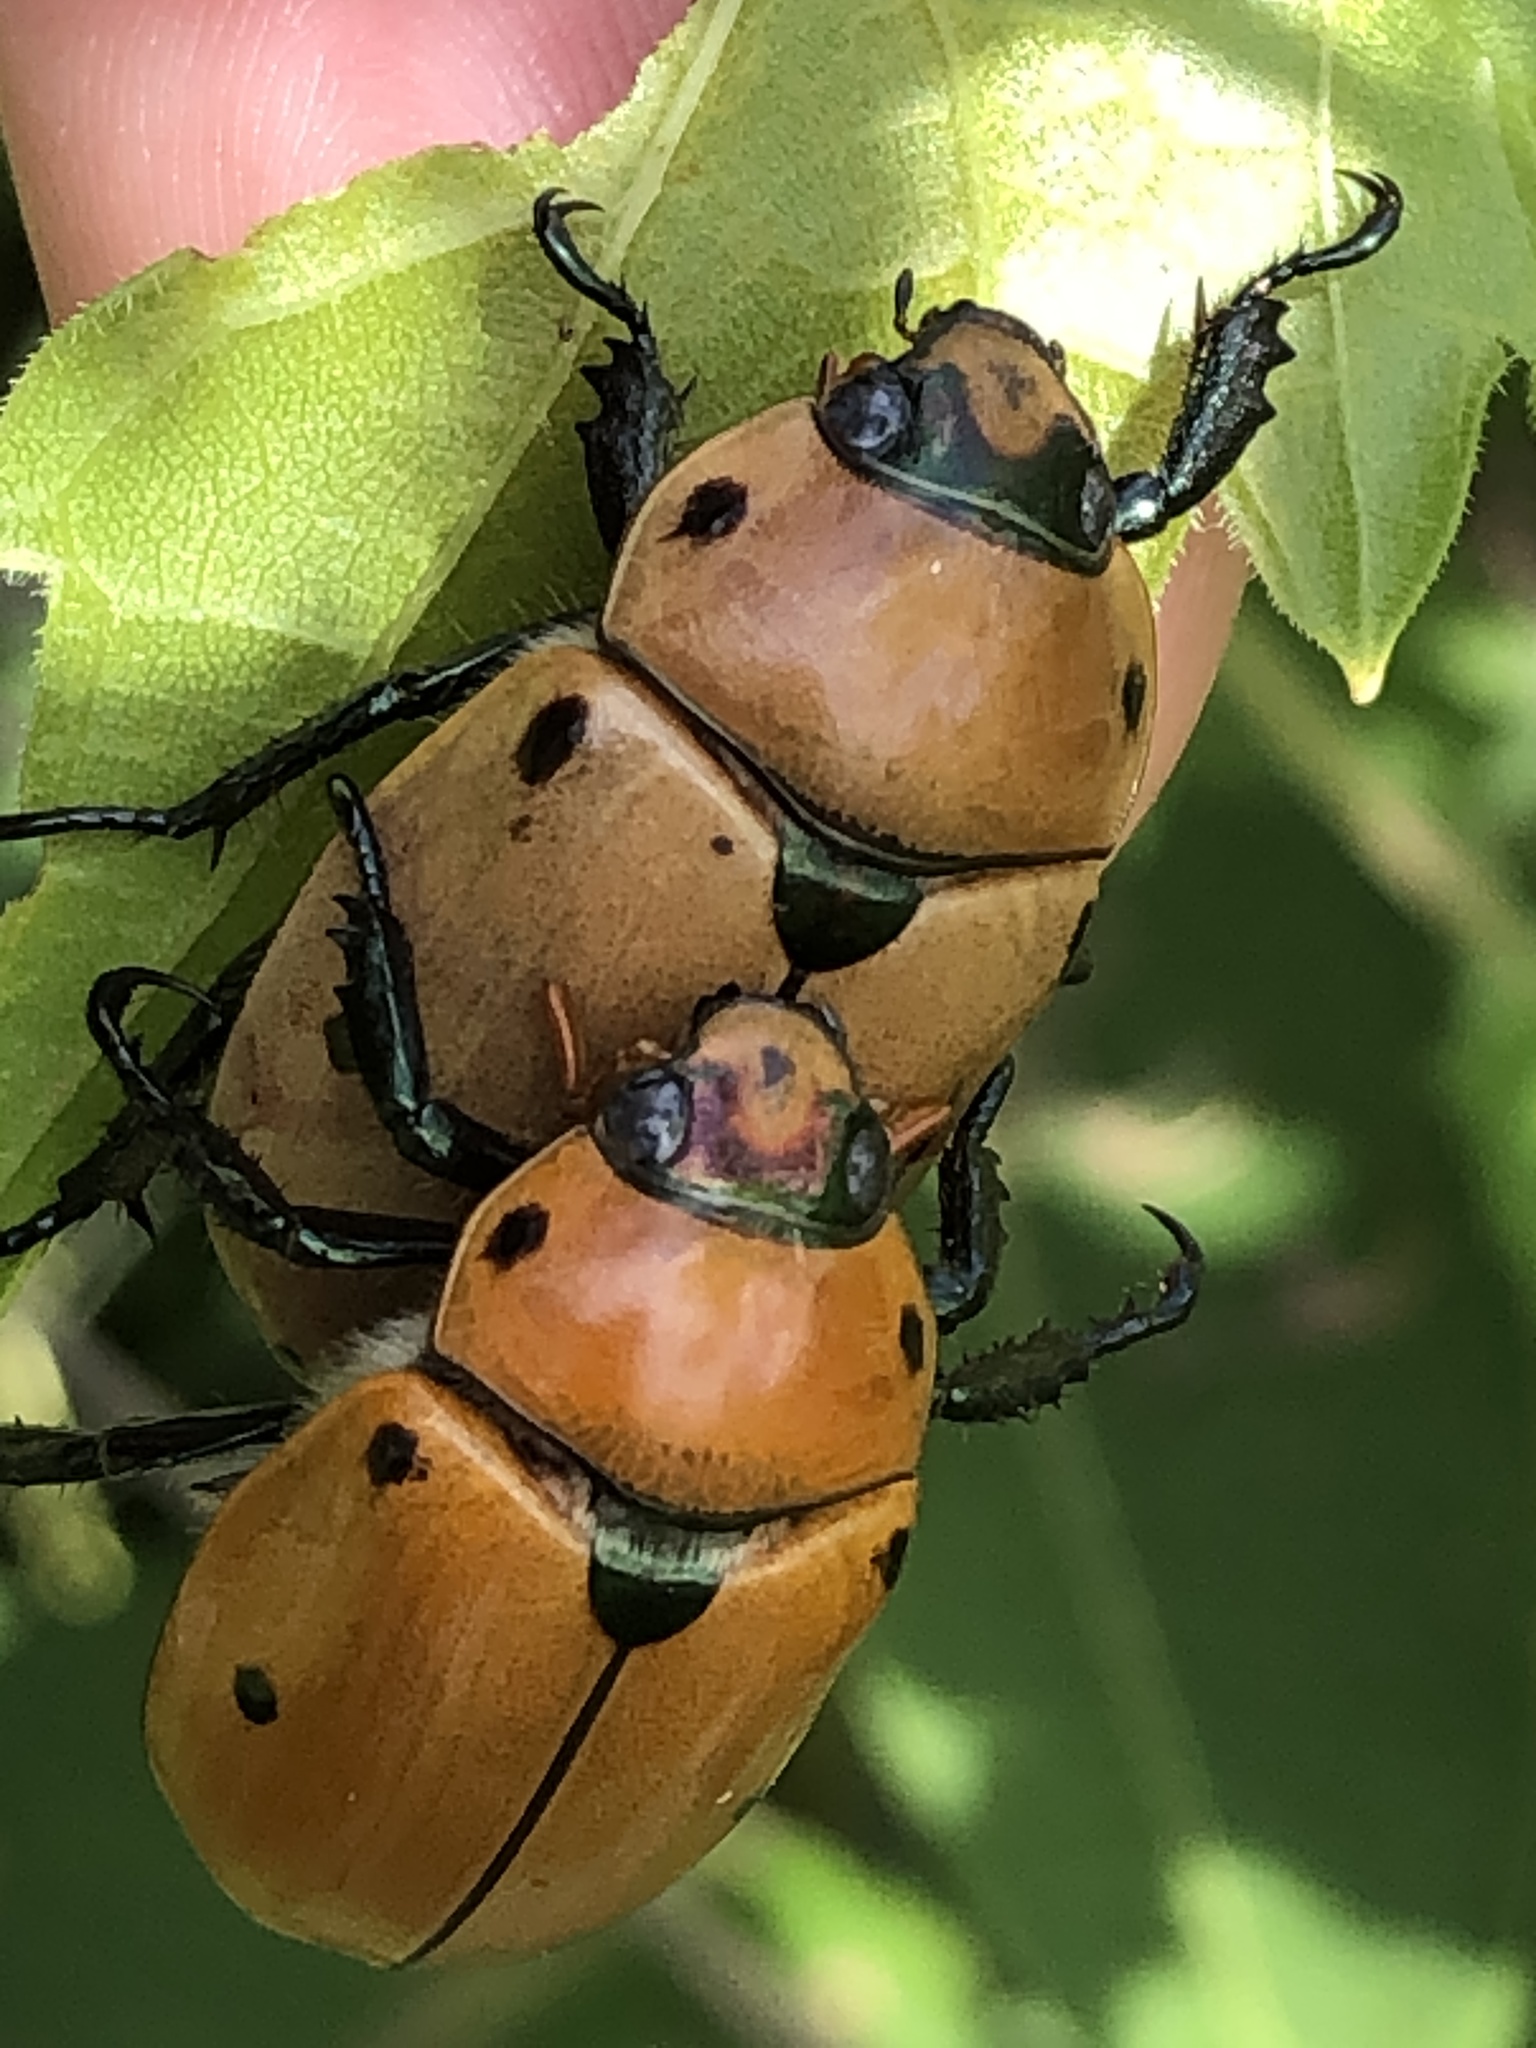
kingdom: Animalia
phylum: Arthropoda
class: Insecta
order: Coleoptera
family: Scarabaeidae
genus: Pelidnota
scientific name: Pelidnota punctata
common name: Grapevine beetle
